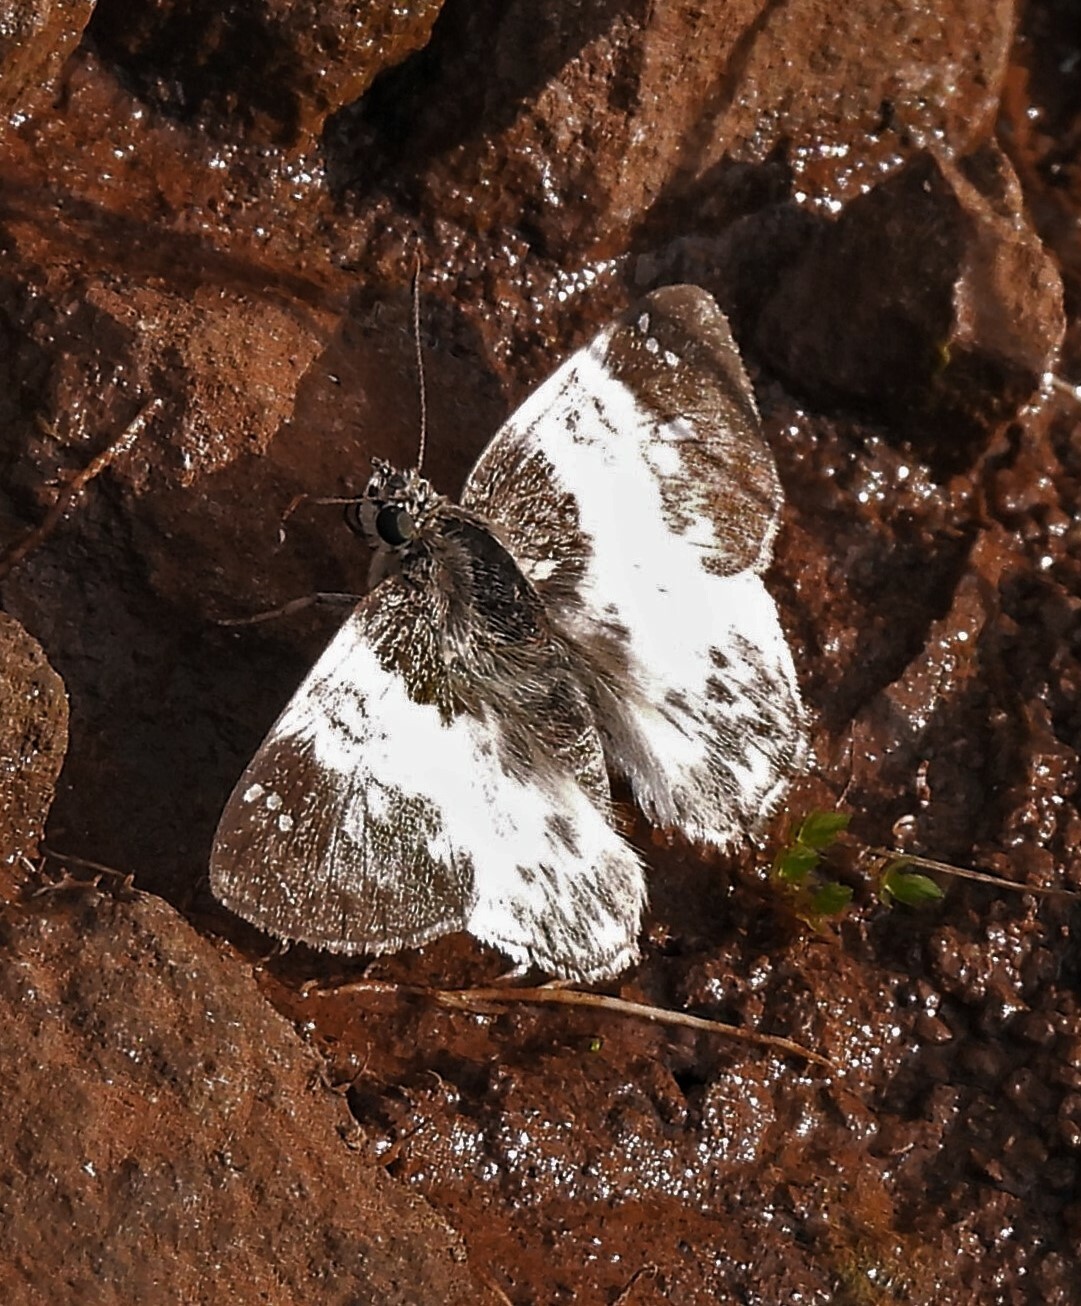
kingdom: Animalia
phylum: Arthropoda
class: Insecta
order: Lepidoptera
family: Hesperiidae
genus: Polyctor
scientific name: Polyctor polyctor
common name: Polyctor tufted-skipper
